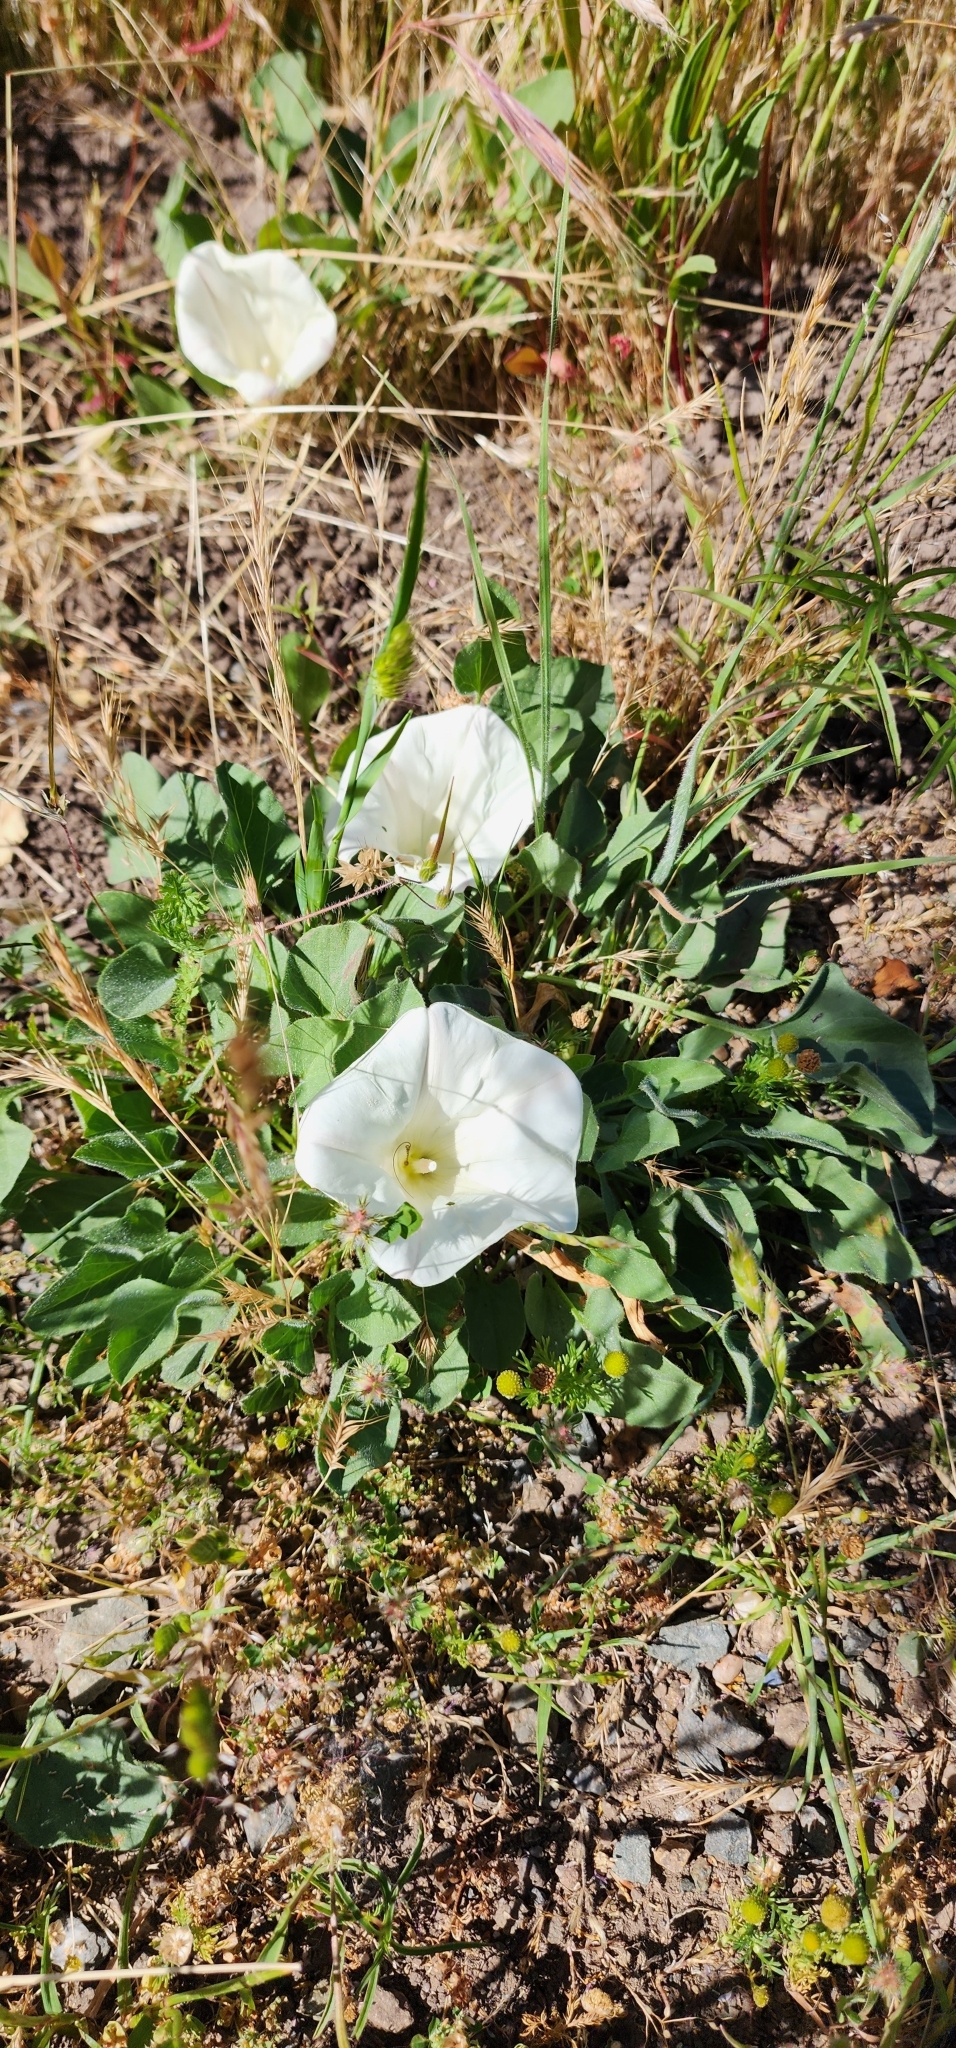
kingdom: Plantae
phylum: Tracheophyta
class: Magnoliopsida
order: Solanales
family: Convolvulaceae
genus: Calystegia
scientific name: Calystegia subacaulis
